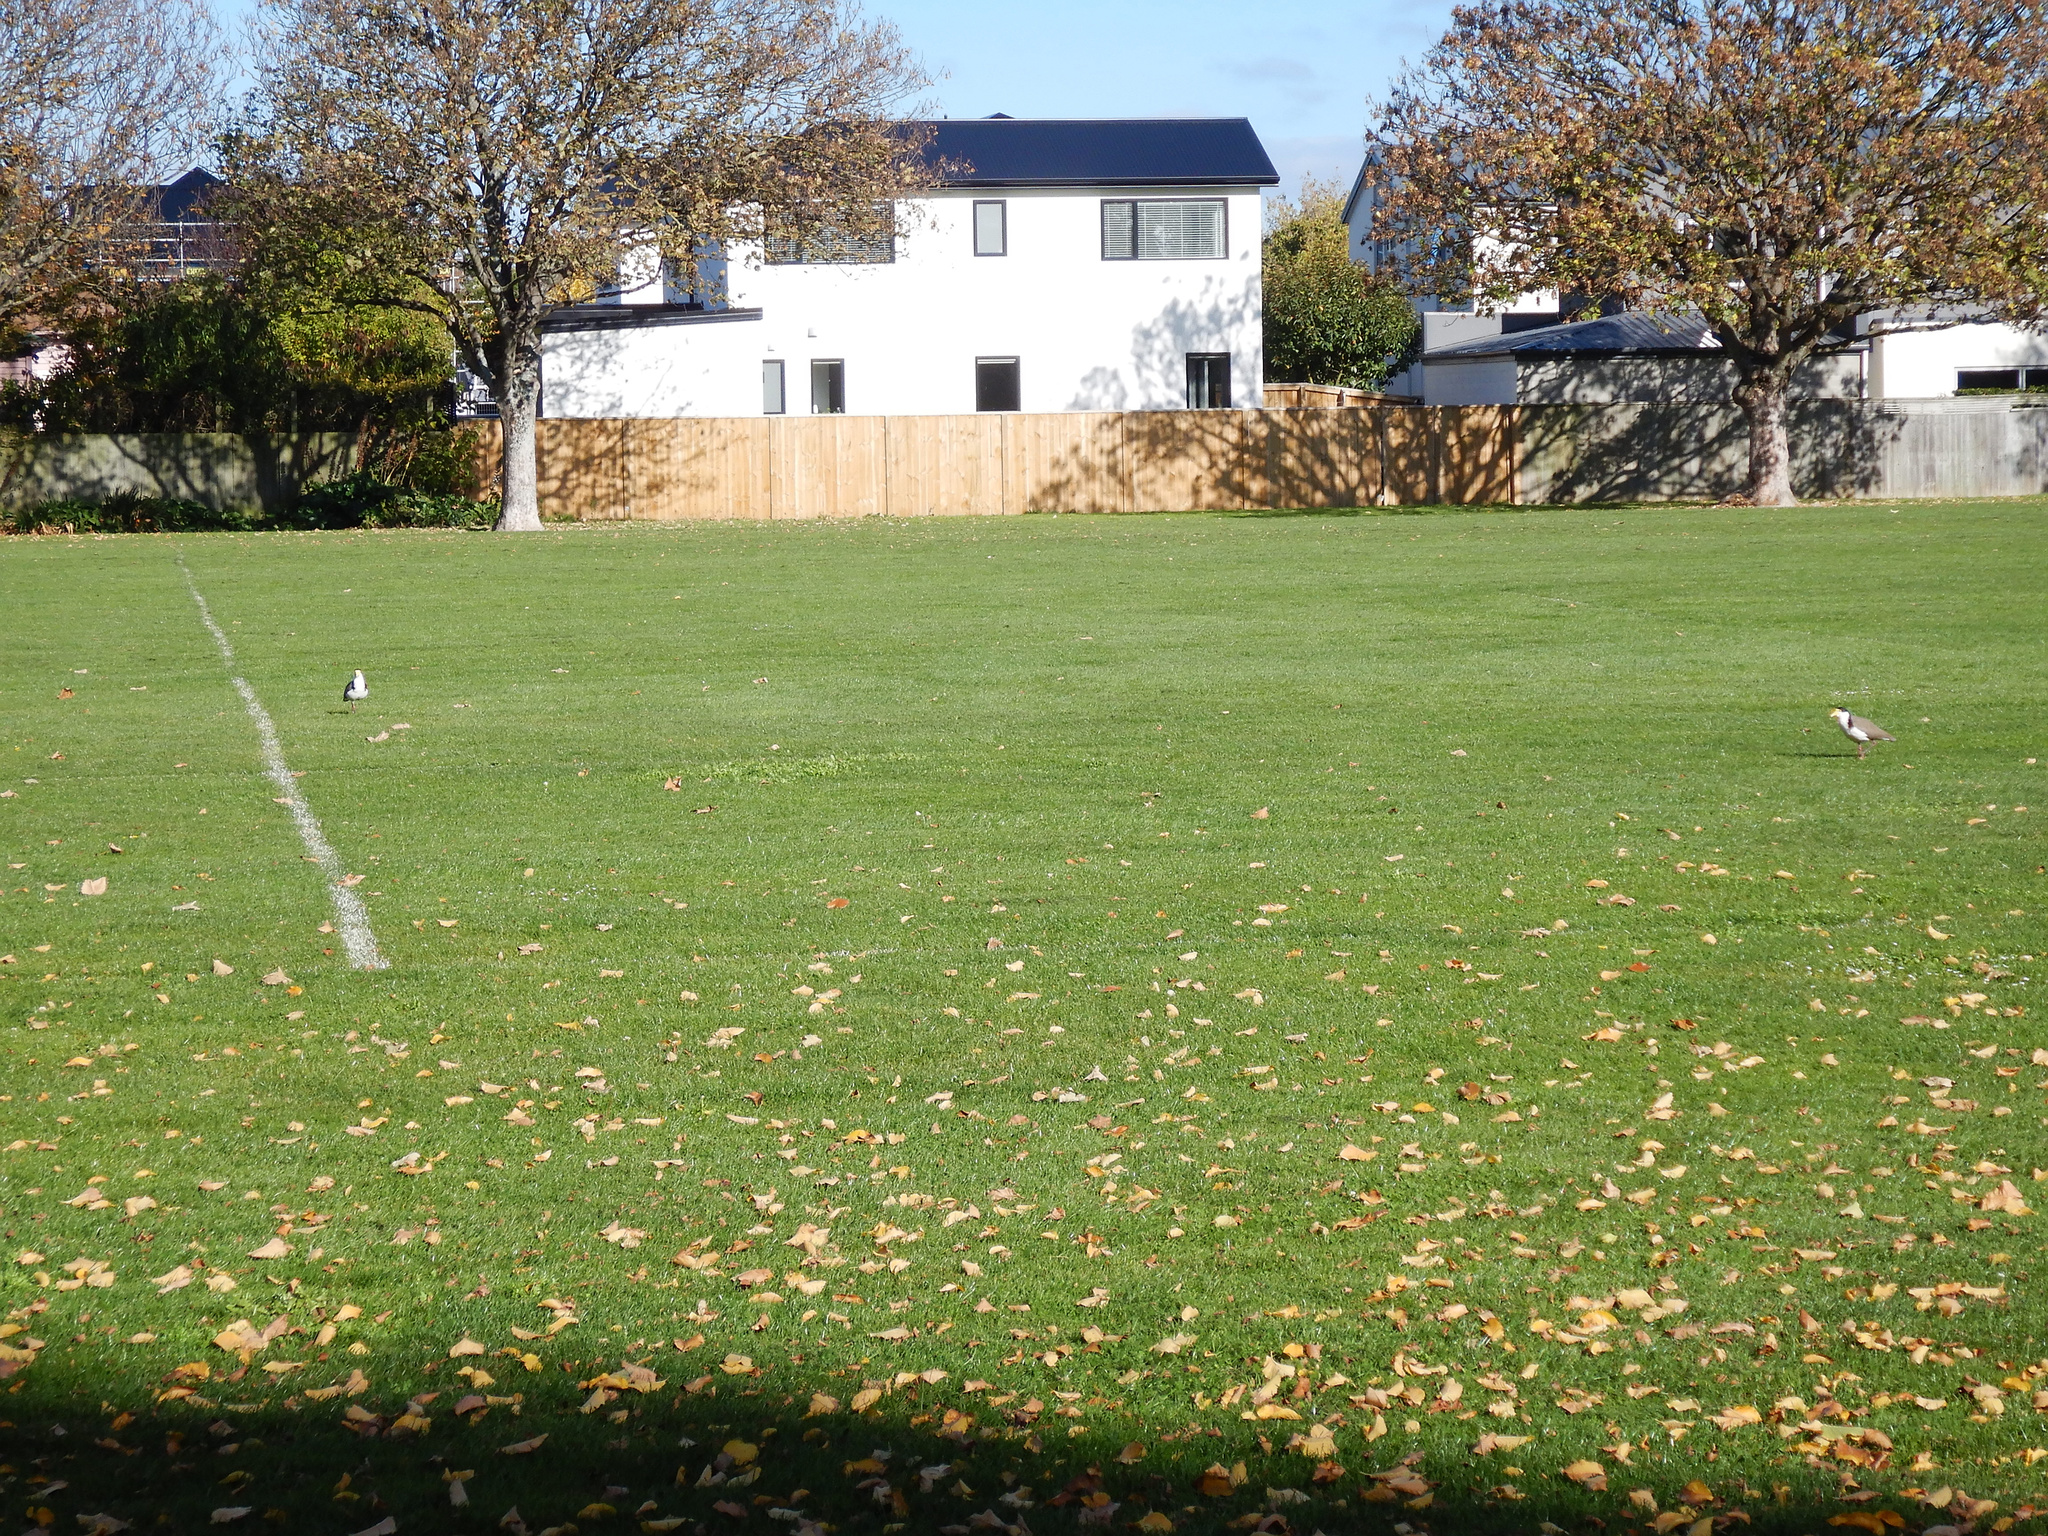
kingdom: Animalia
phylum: Chordata
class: Aves
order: Charadriiformes
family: Charadriidae
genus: Vanellus
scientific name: Vanellus miles
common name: Masked lapwing
